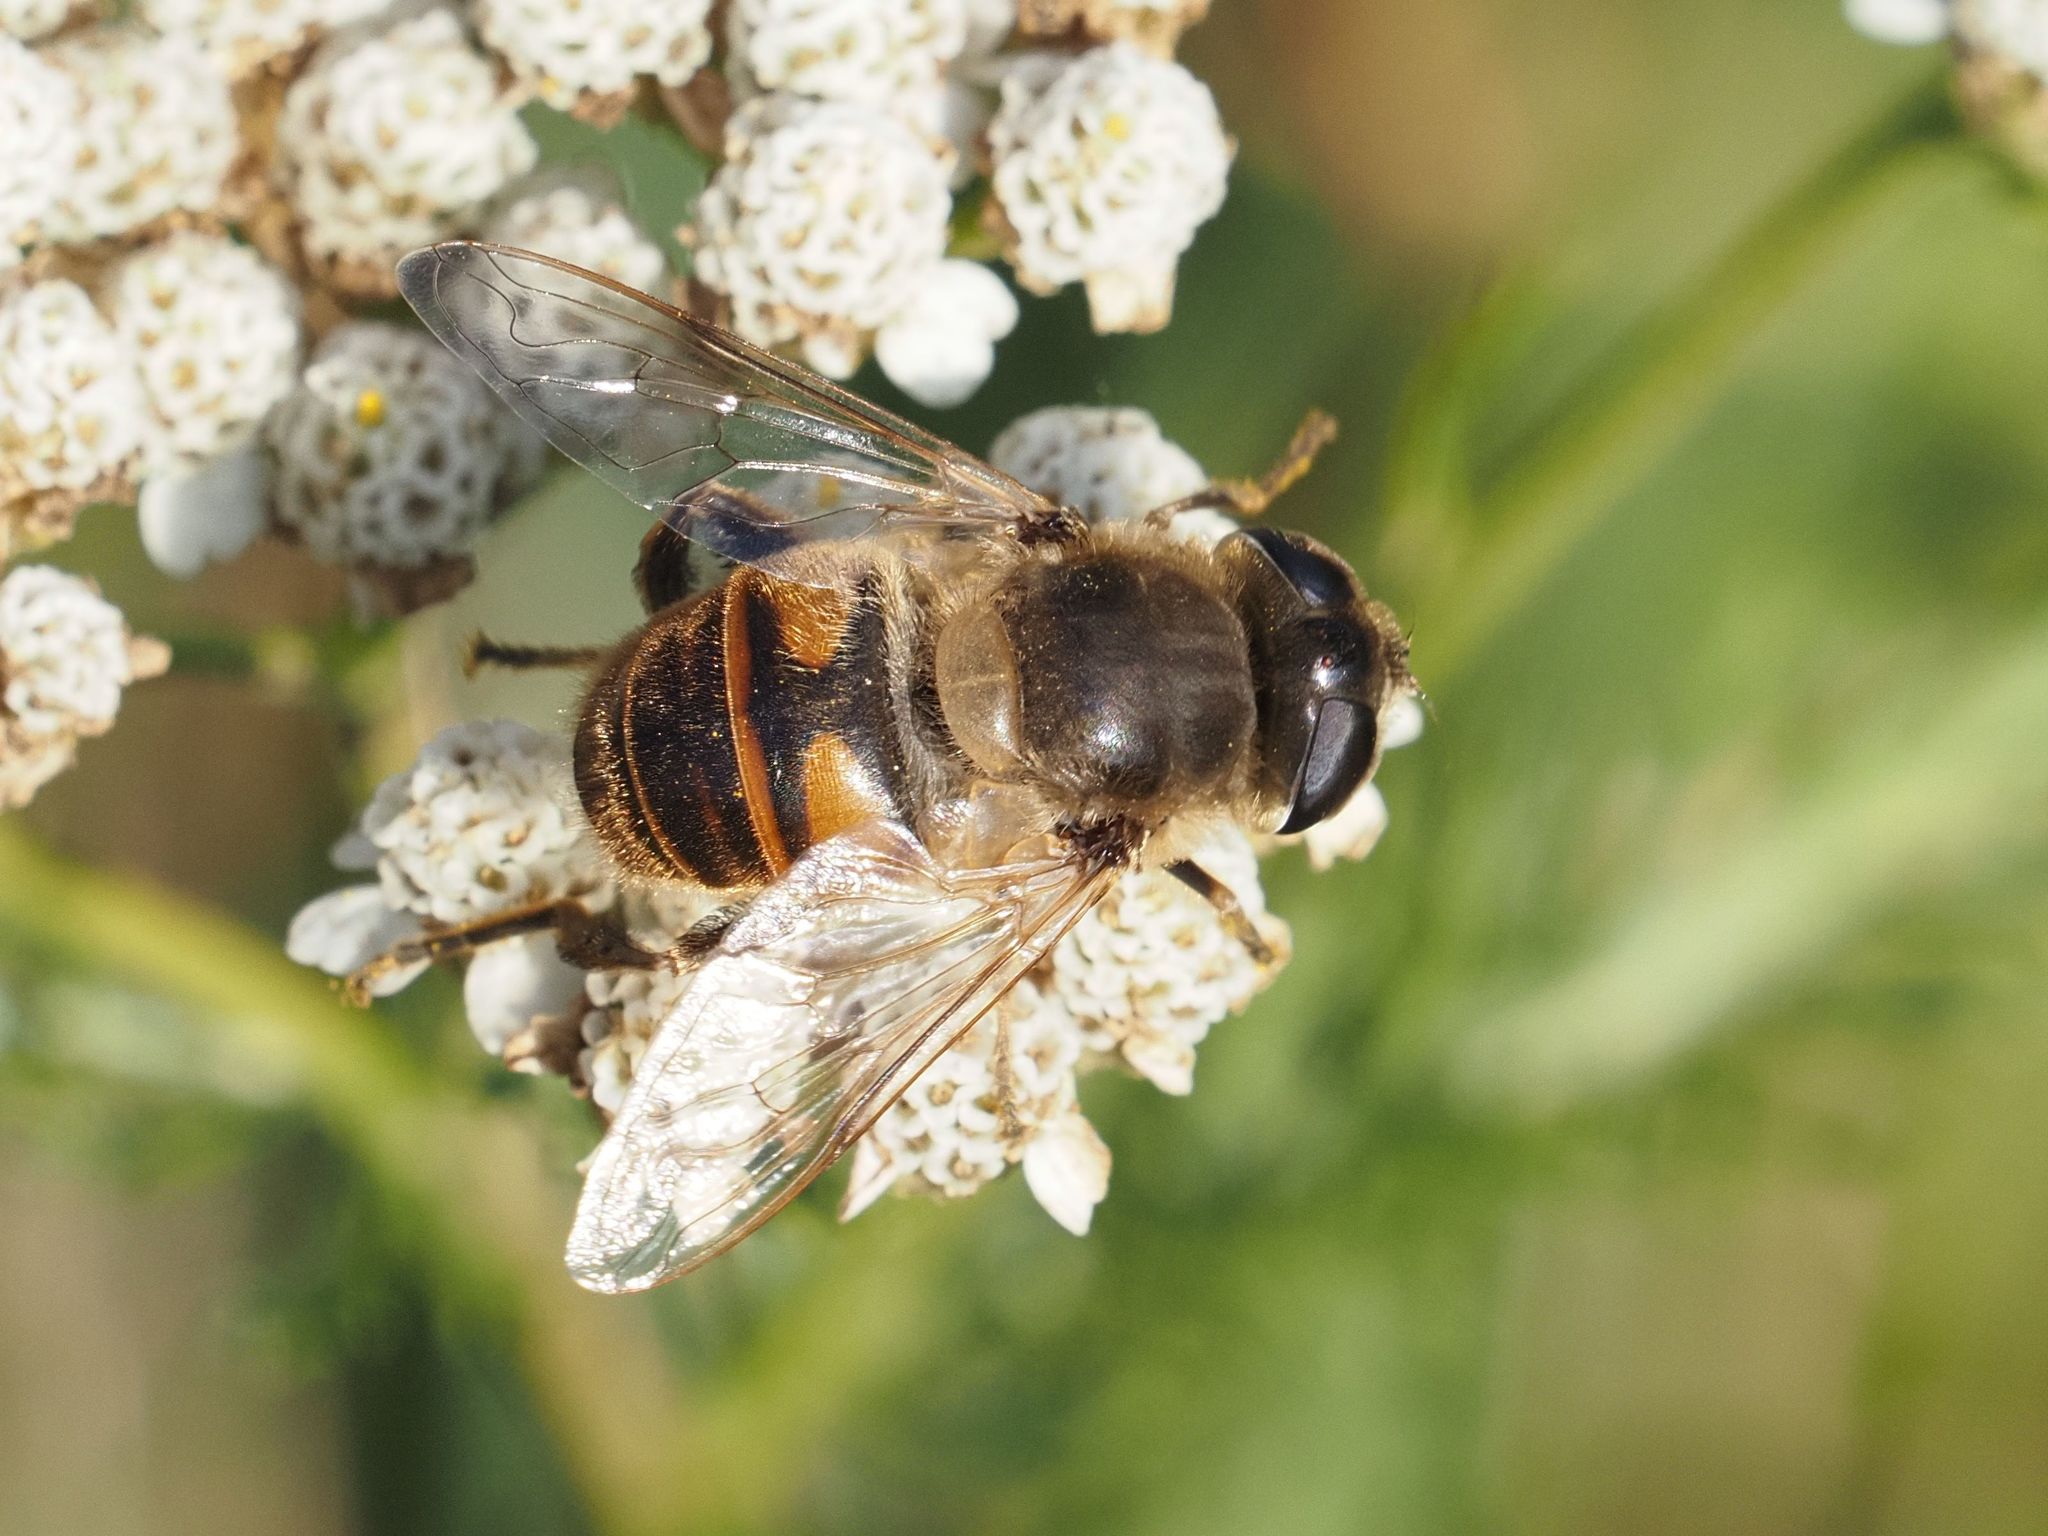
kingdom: Animalia
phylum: Arthropoda
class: Insecta
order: Diptera
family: Syrphidae
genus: Eristalis
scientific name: Eristalis tenax
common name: Drone fly
